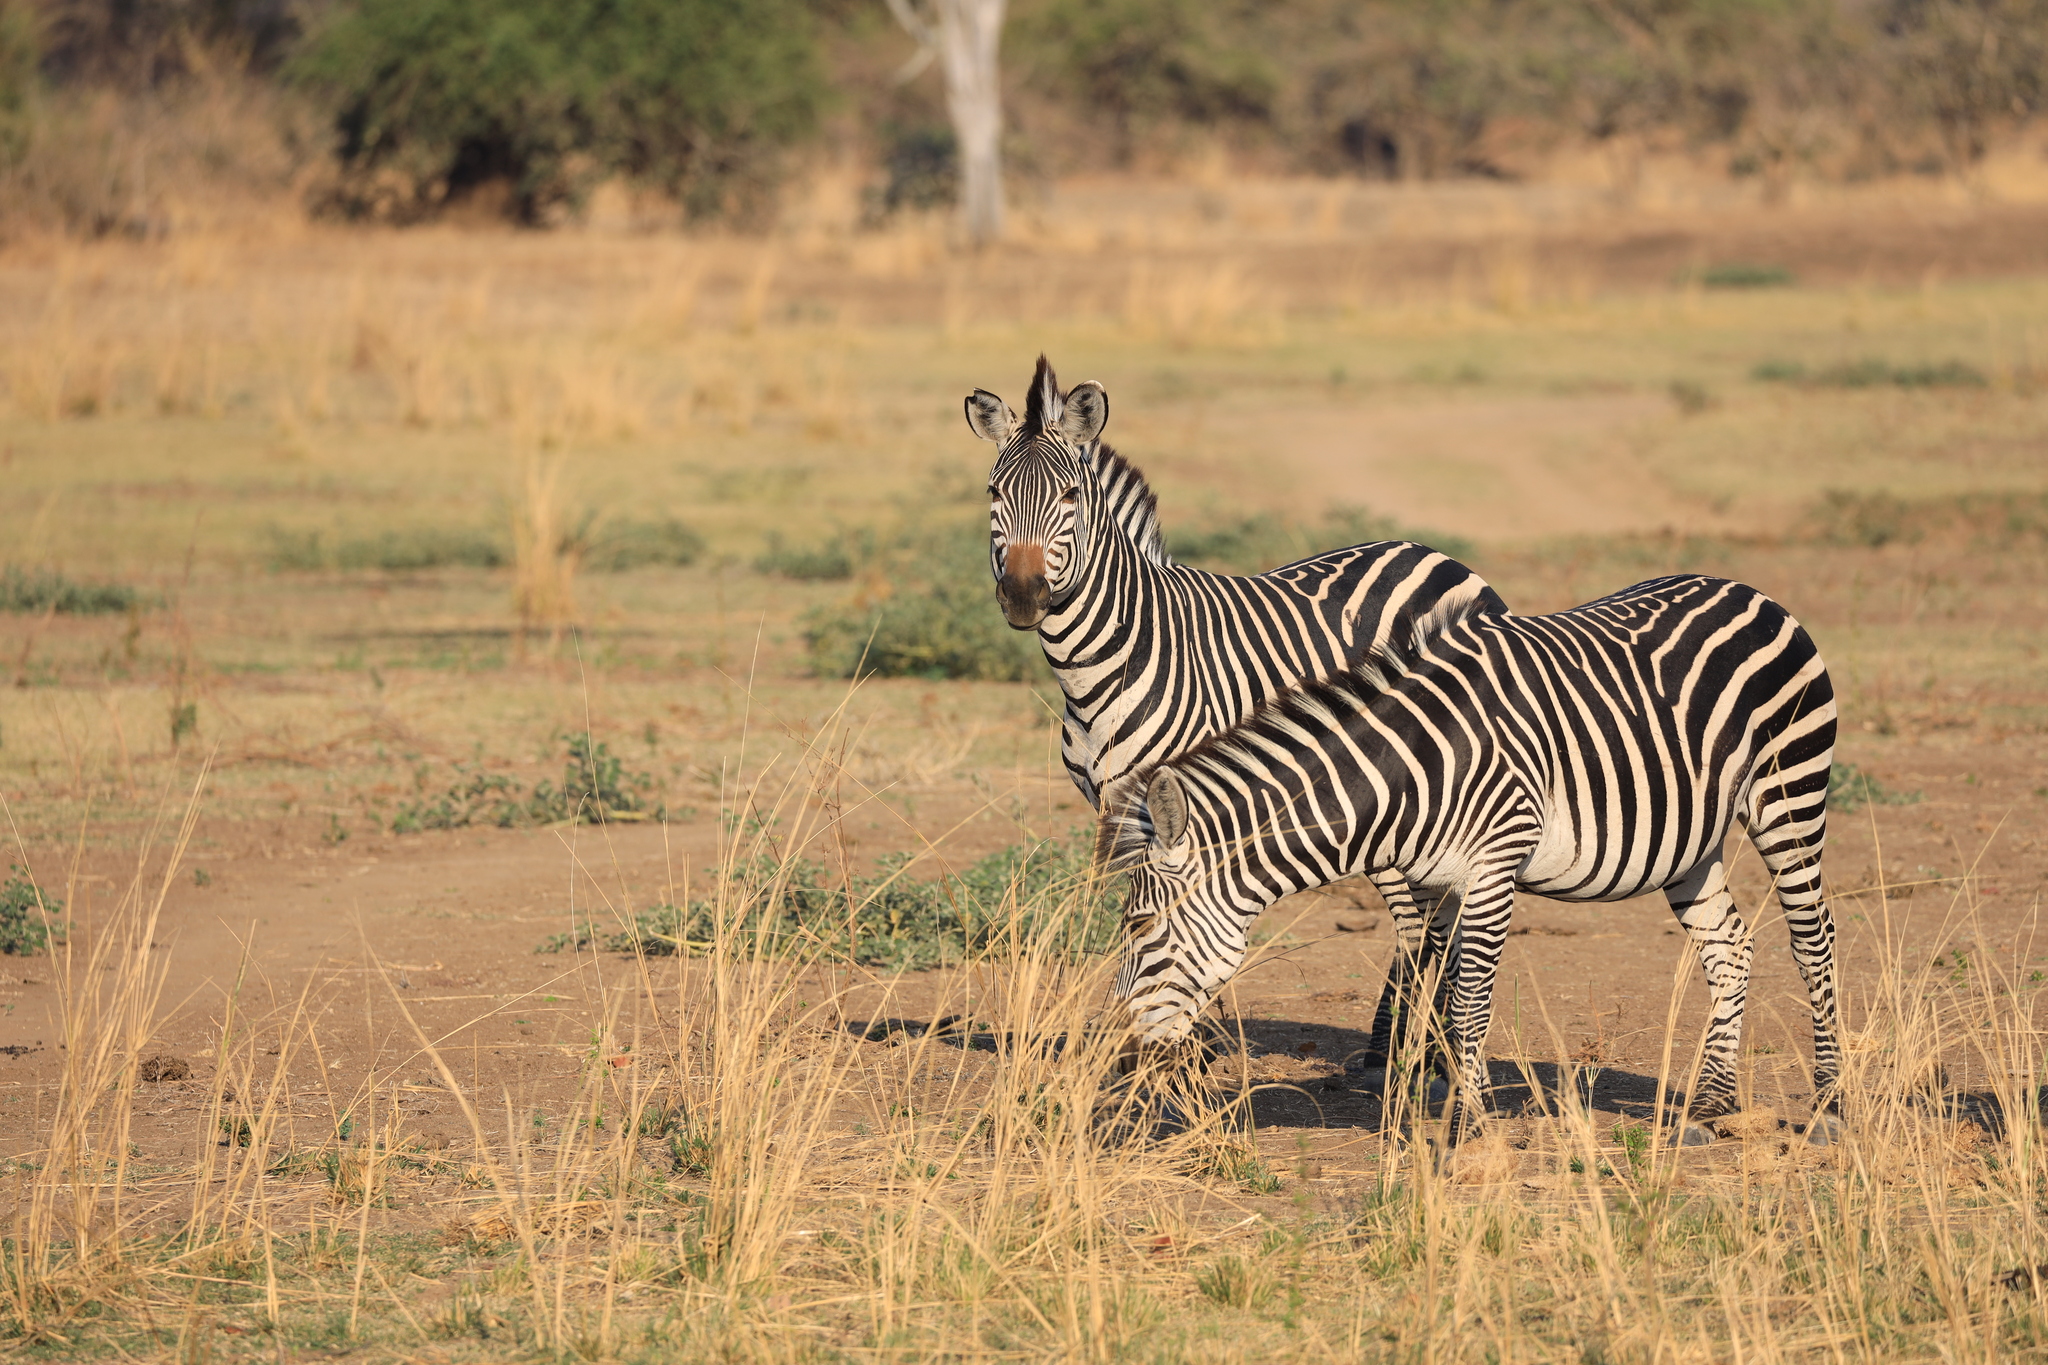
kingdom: Animalia
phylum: Chordata
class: Mammalia
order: Perissodactyla
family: Equidae
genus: Equus
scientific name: Equus quagga
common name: Plains zebra
